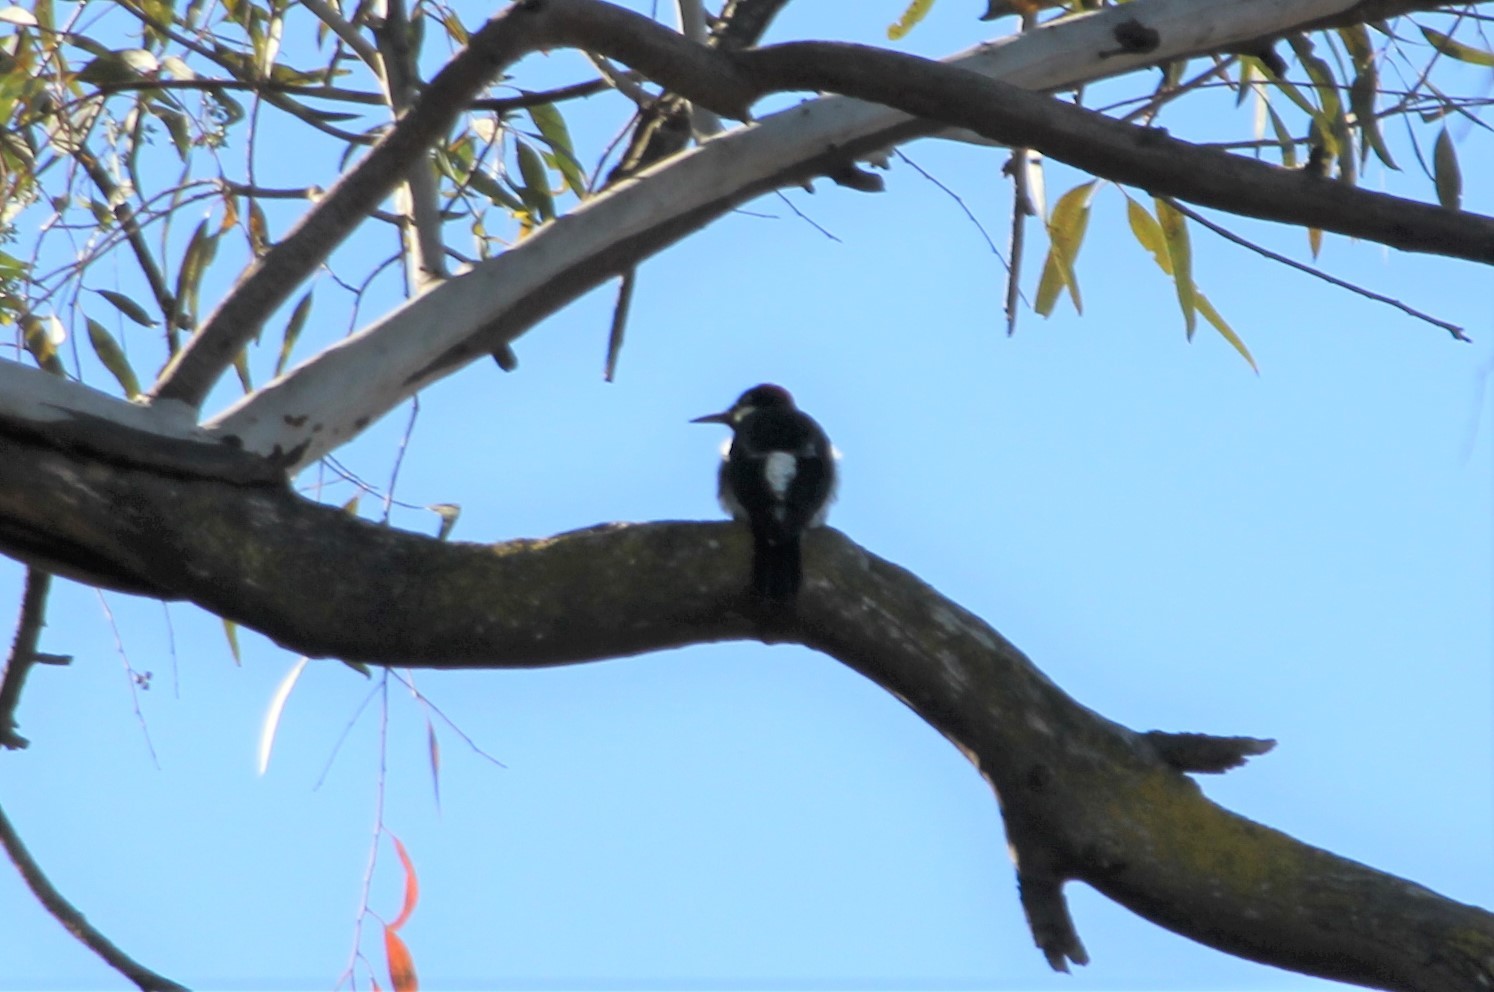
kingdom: Animalia
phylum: Chordata
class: Aves
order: Piciformes
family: Picidae
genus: Melanerpes
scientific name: Melanerpes formicivorus
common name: Acorn woodpecker
